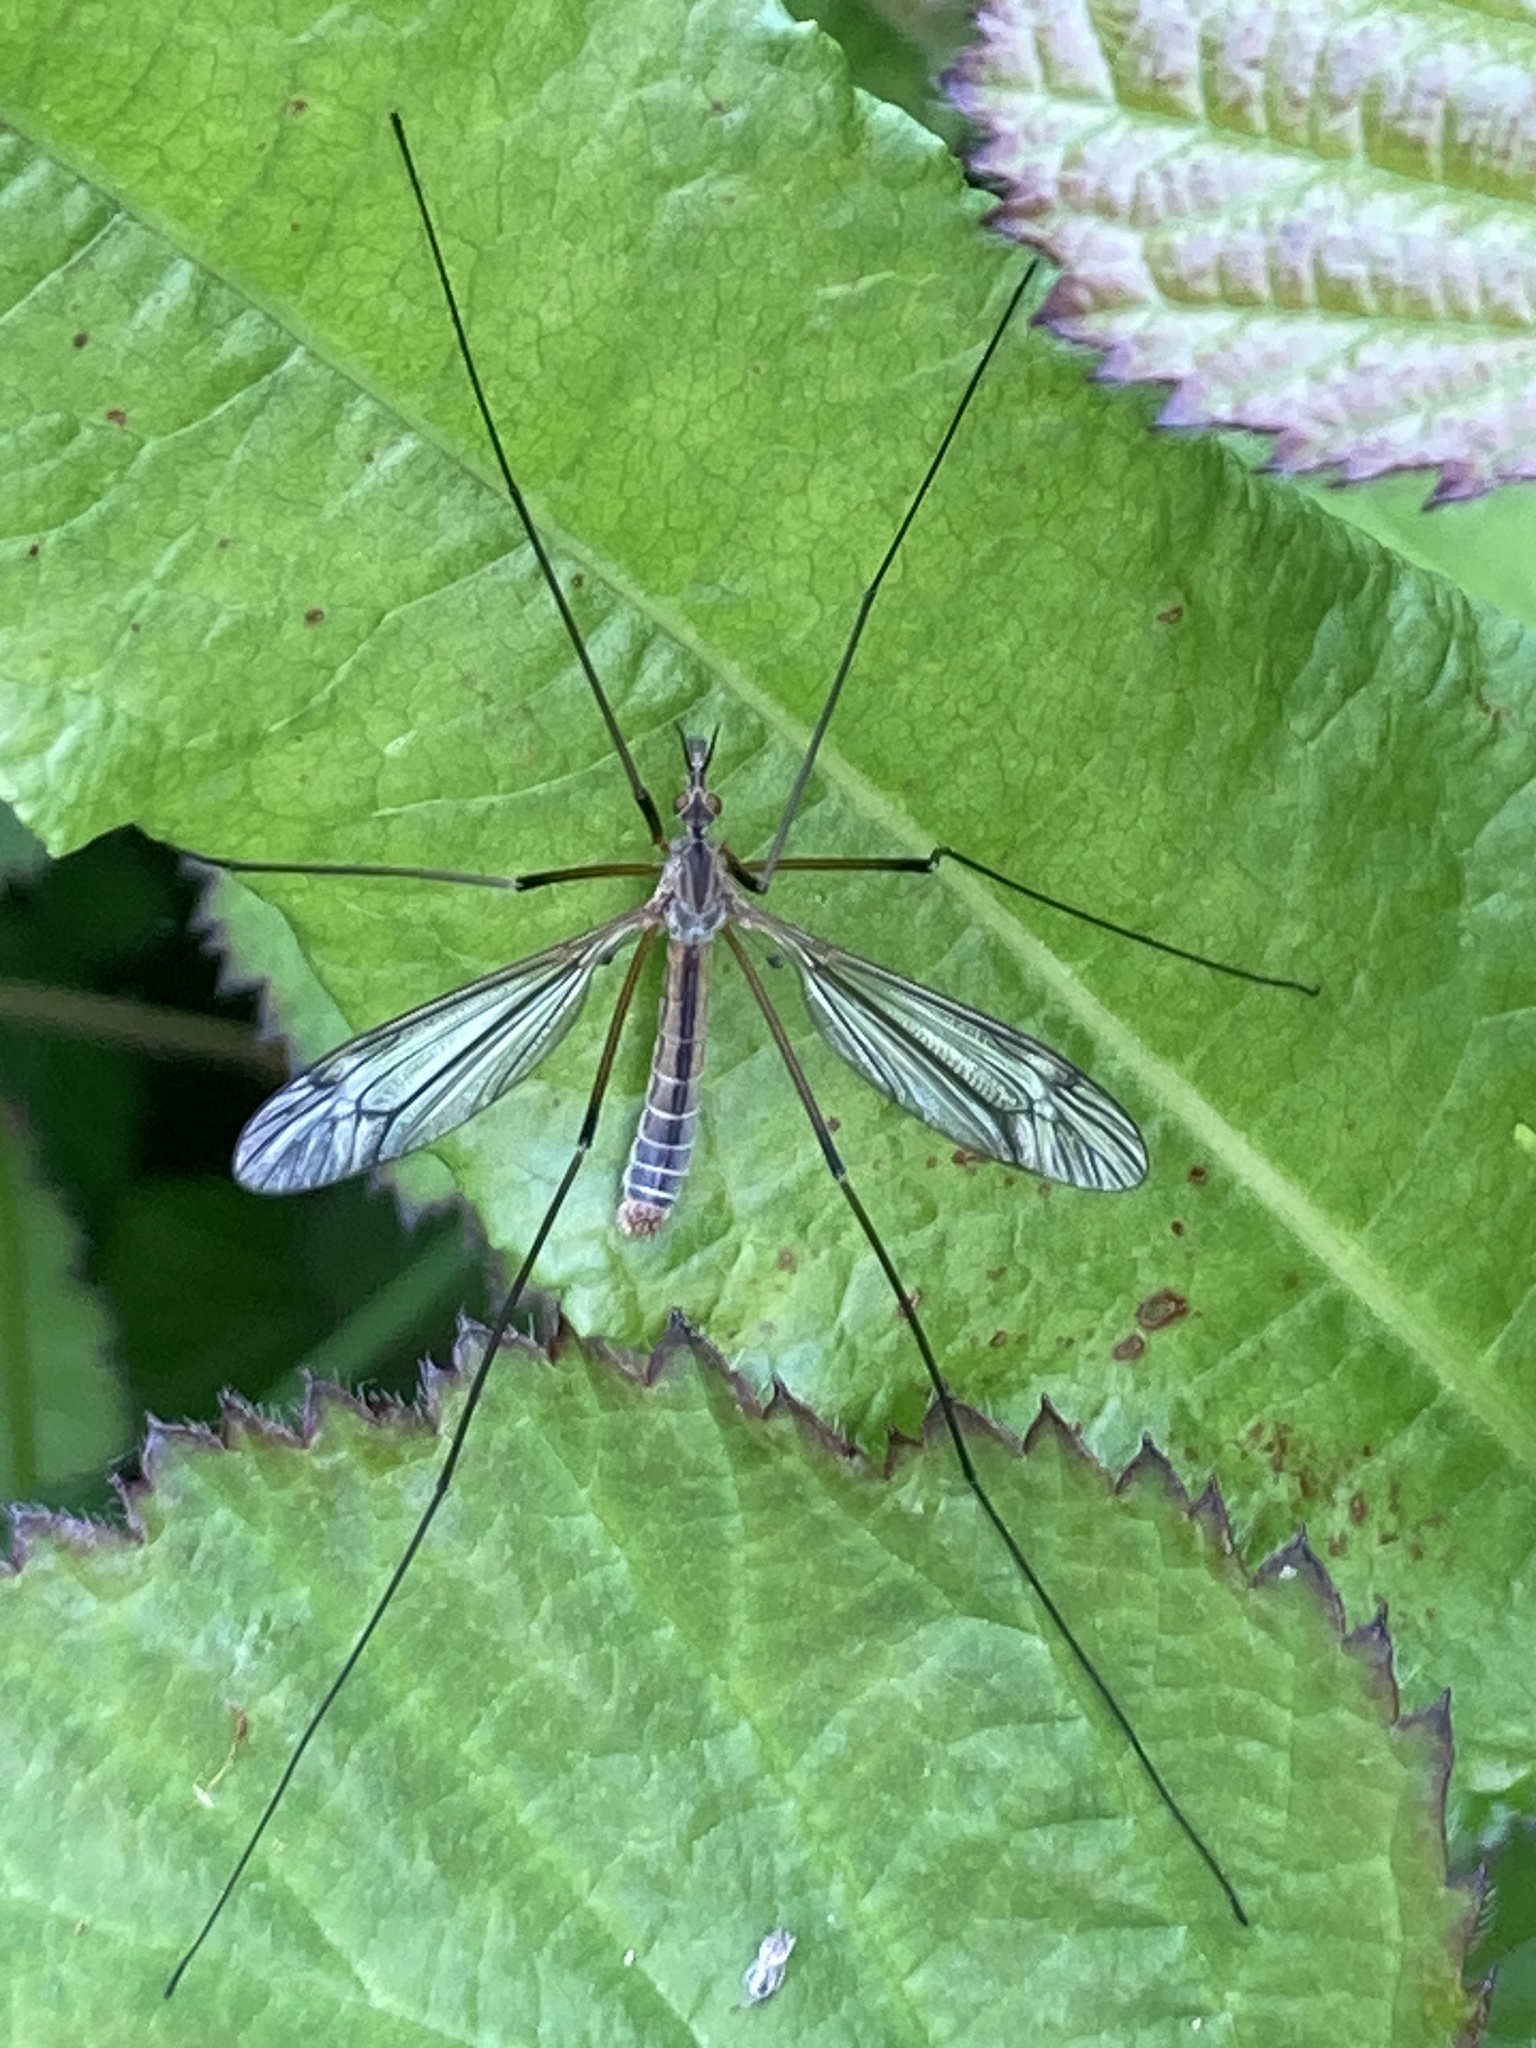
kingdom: Animalia
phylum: Arthropoda
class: Insecta
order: Diptera
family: Tipulidae
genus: Tipula
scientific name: Tipula vernalis
